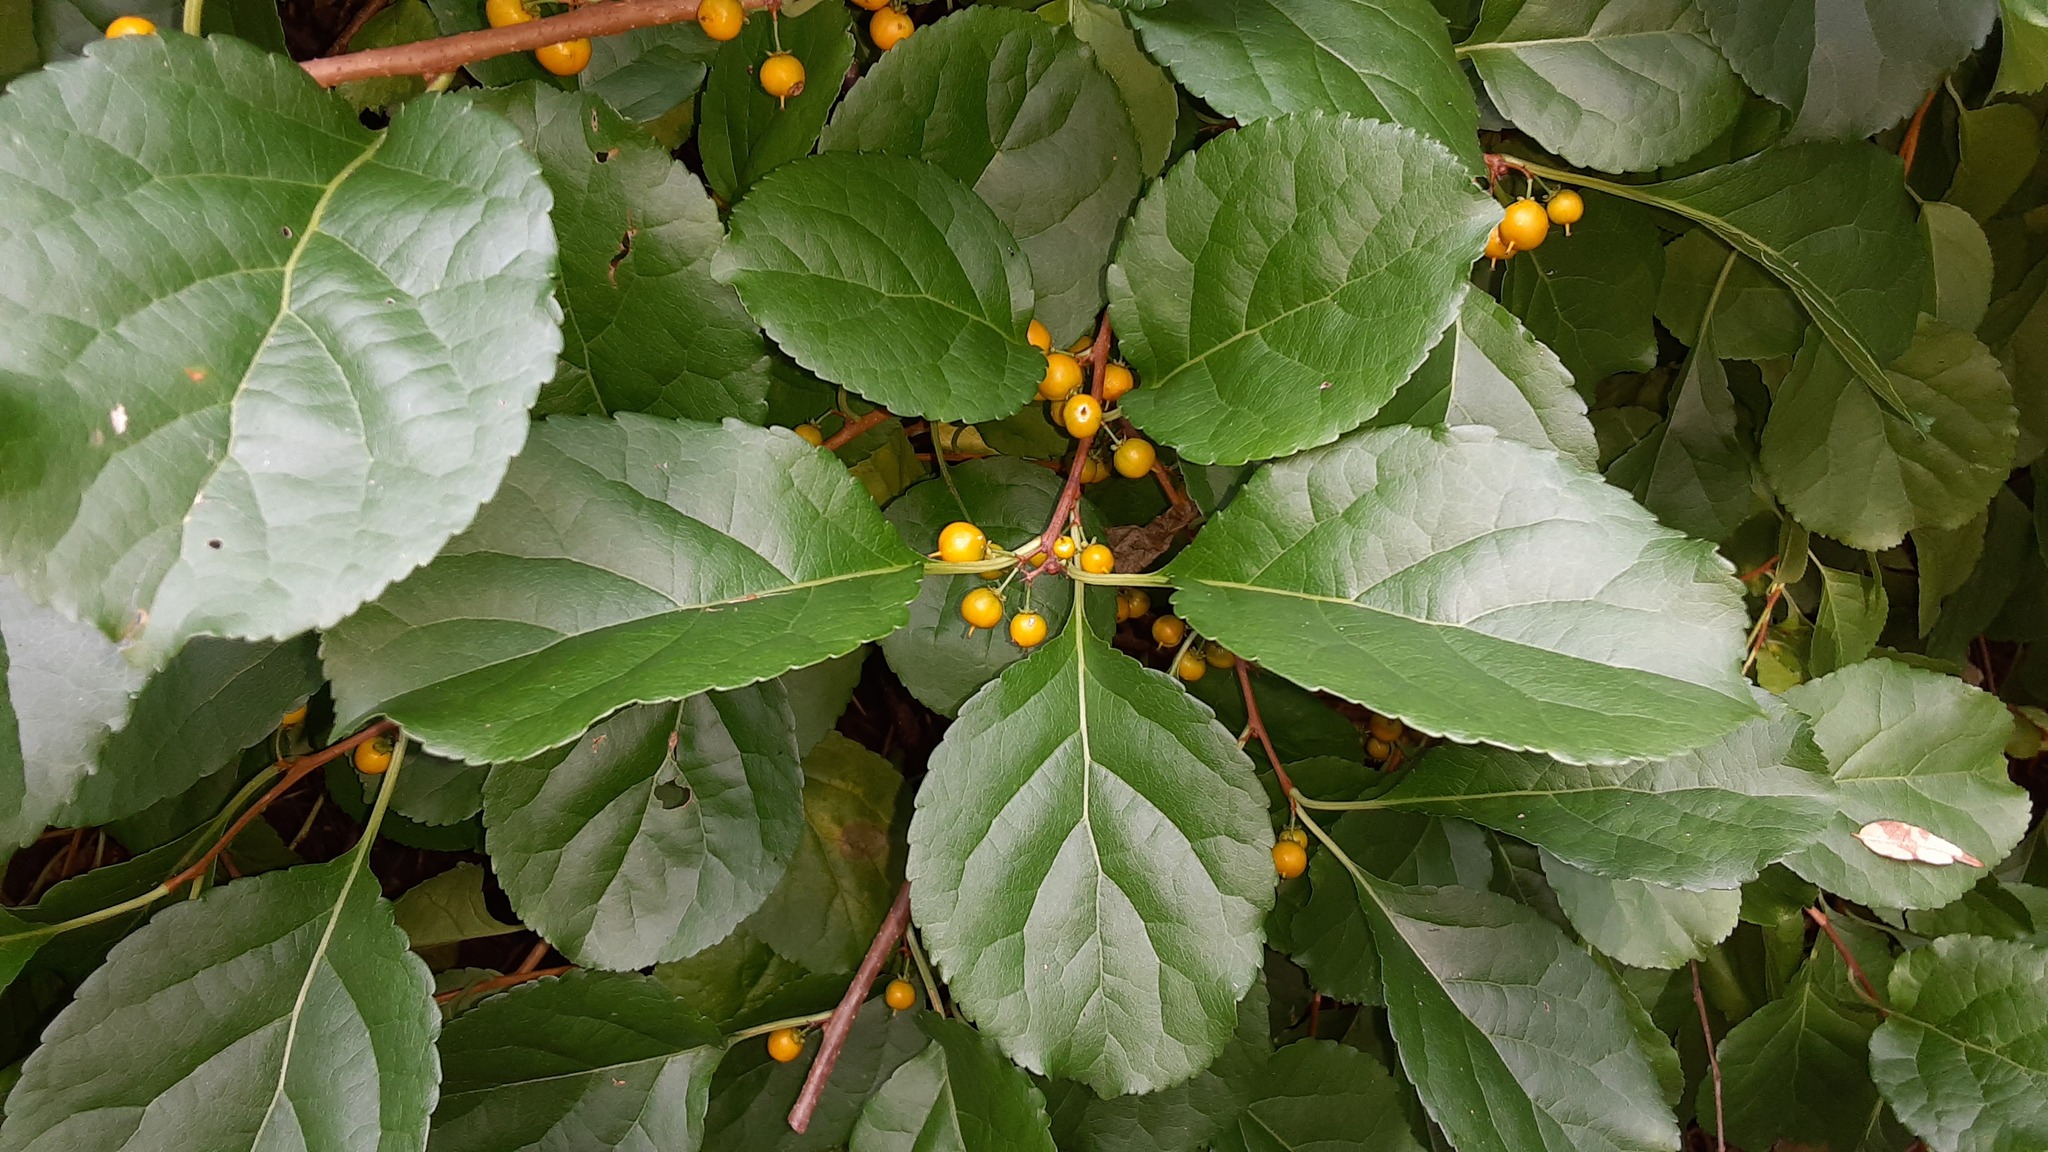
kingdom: Plantae
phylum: Tracheophyta
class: Magnoliopsida
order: Celastrales
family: Celastraceae
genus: Celastrus
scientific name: Celastrus orbiculatus
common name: Oriental bittersweet
